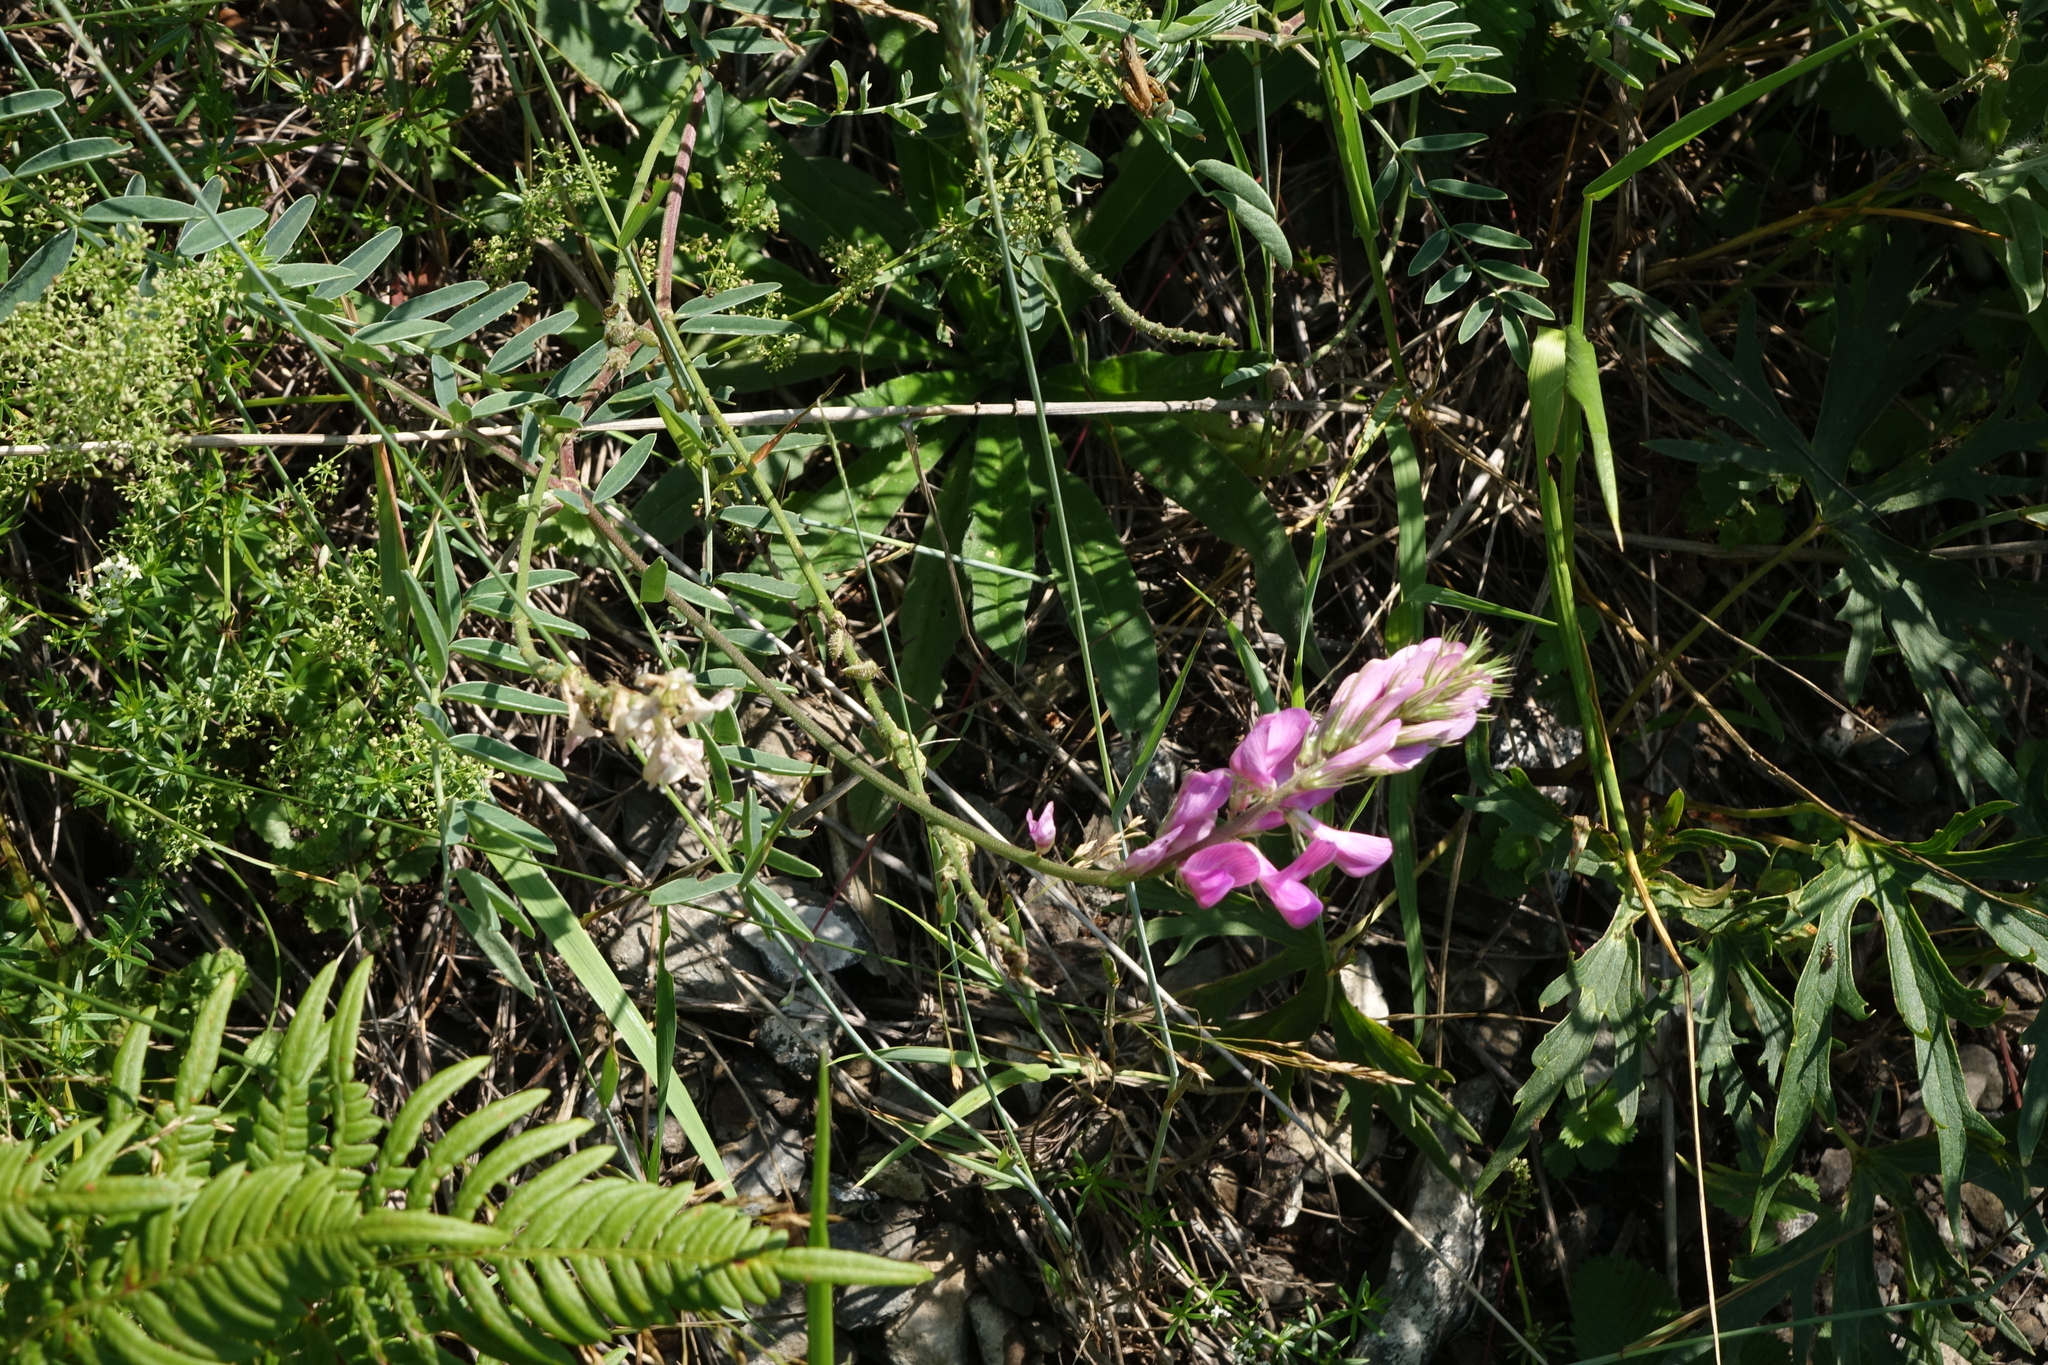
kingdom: Plantae
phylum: Tracheophyta
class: Magnoliopsida
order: Fabales
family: Fabaceae
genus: Hedysarum
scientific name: Hedysarum gmelinii
